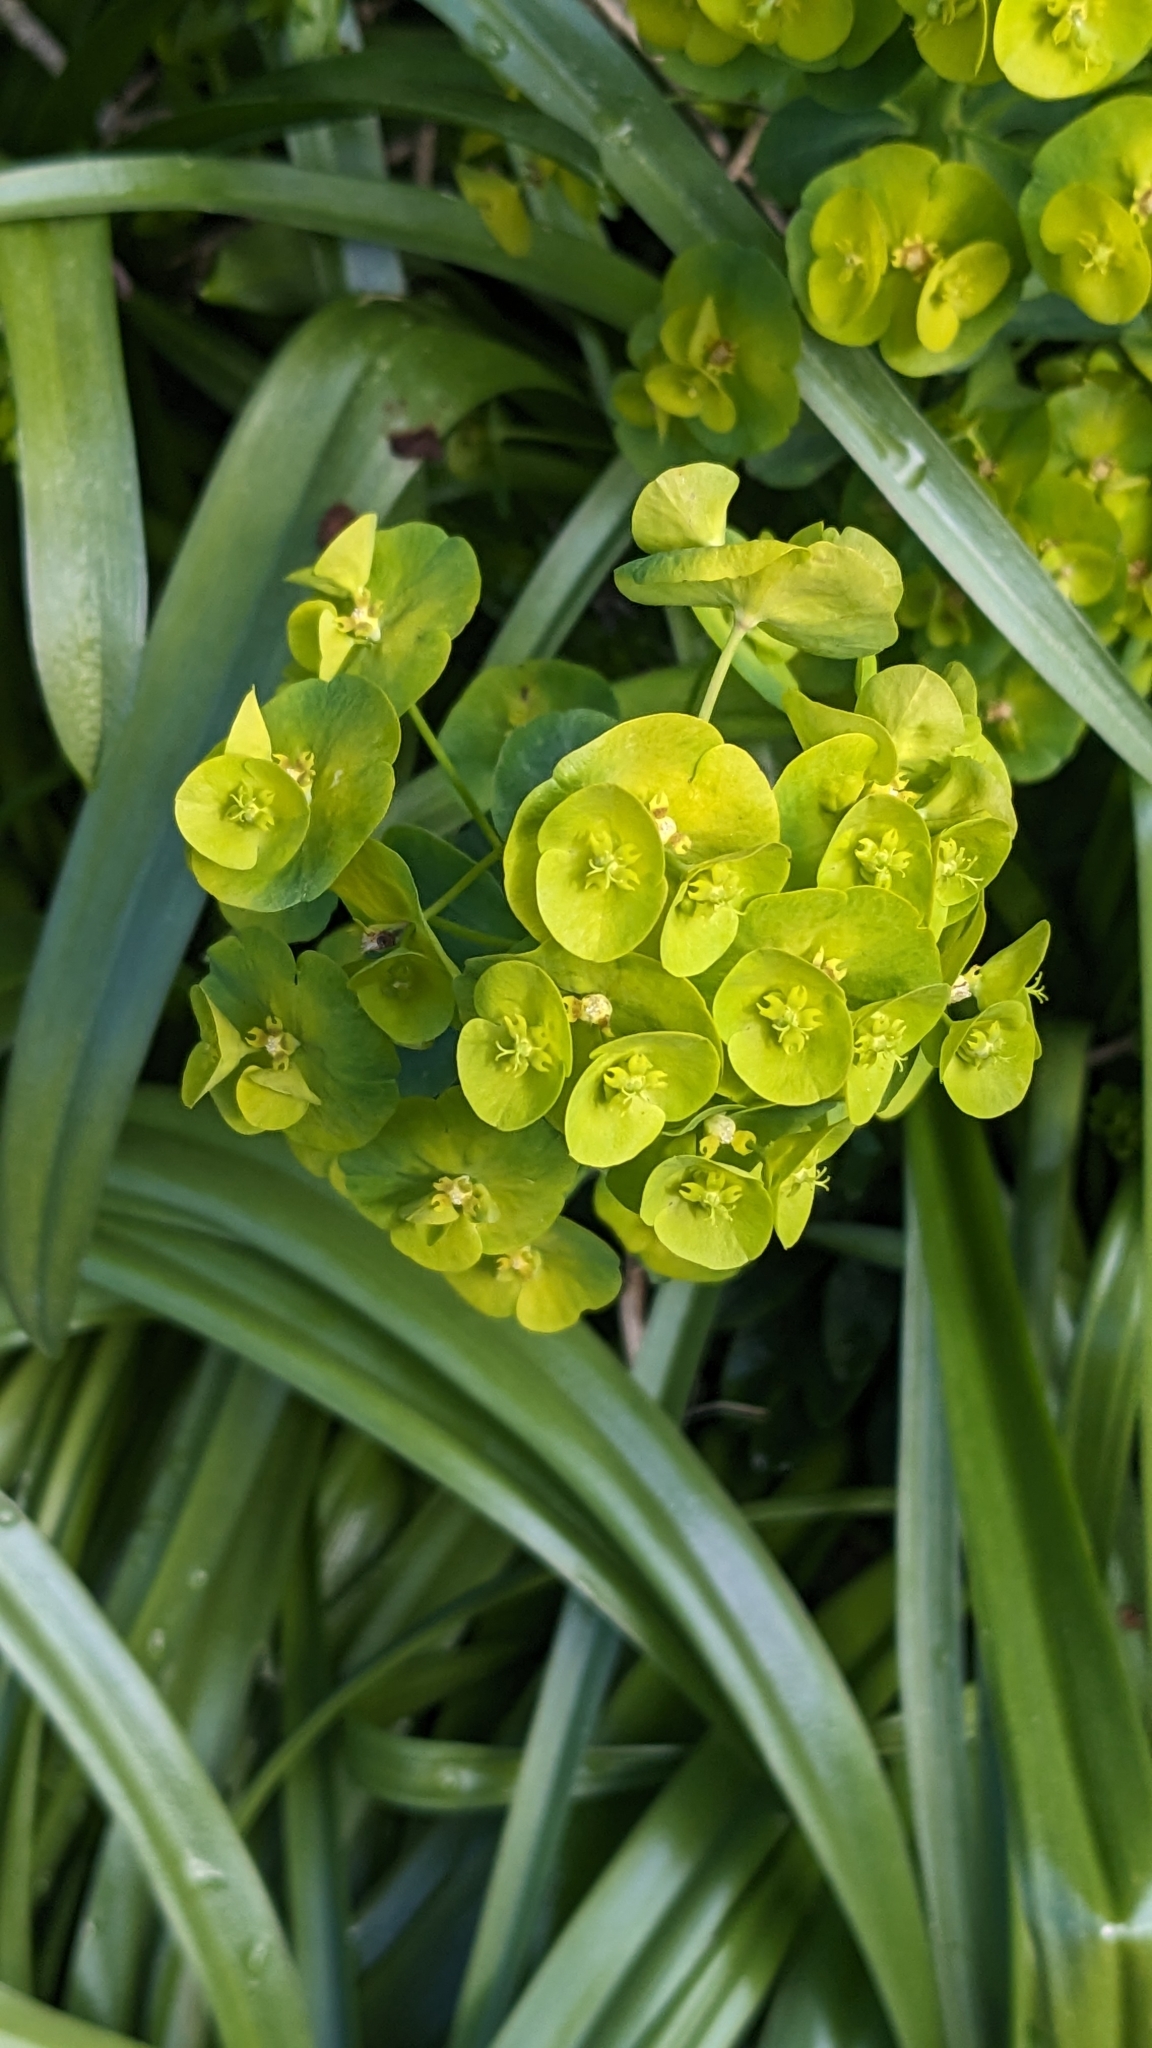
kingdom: Plantae
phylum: Tracheophyta
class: Magnoliopsida
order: Malpighiales
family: Euphorbiaceae
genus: Euphorbia
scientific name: Euphorbia amygdaloides
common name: Wood spurge
